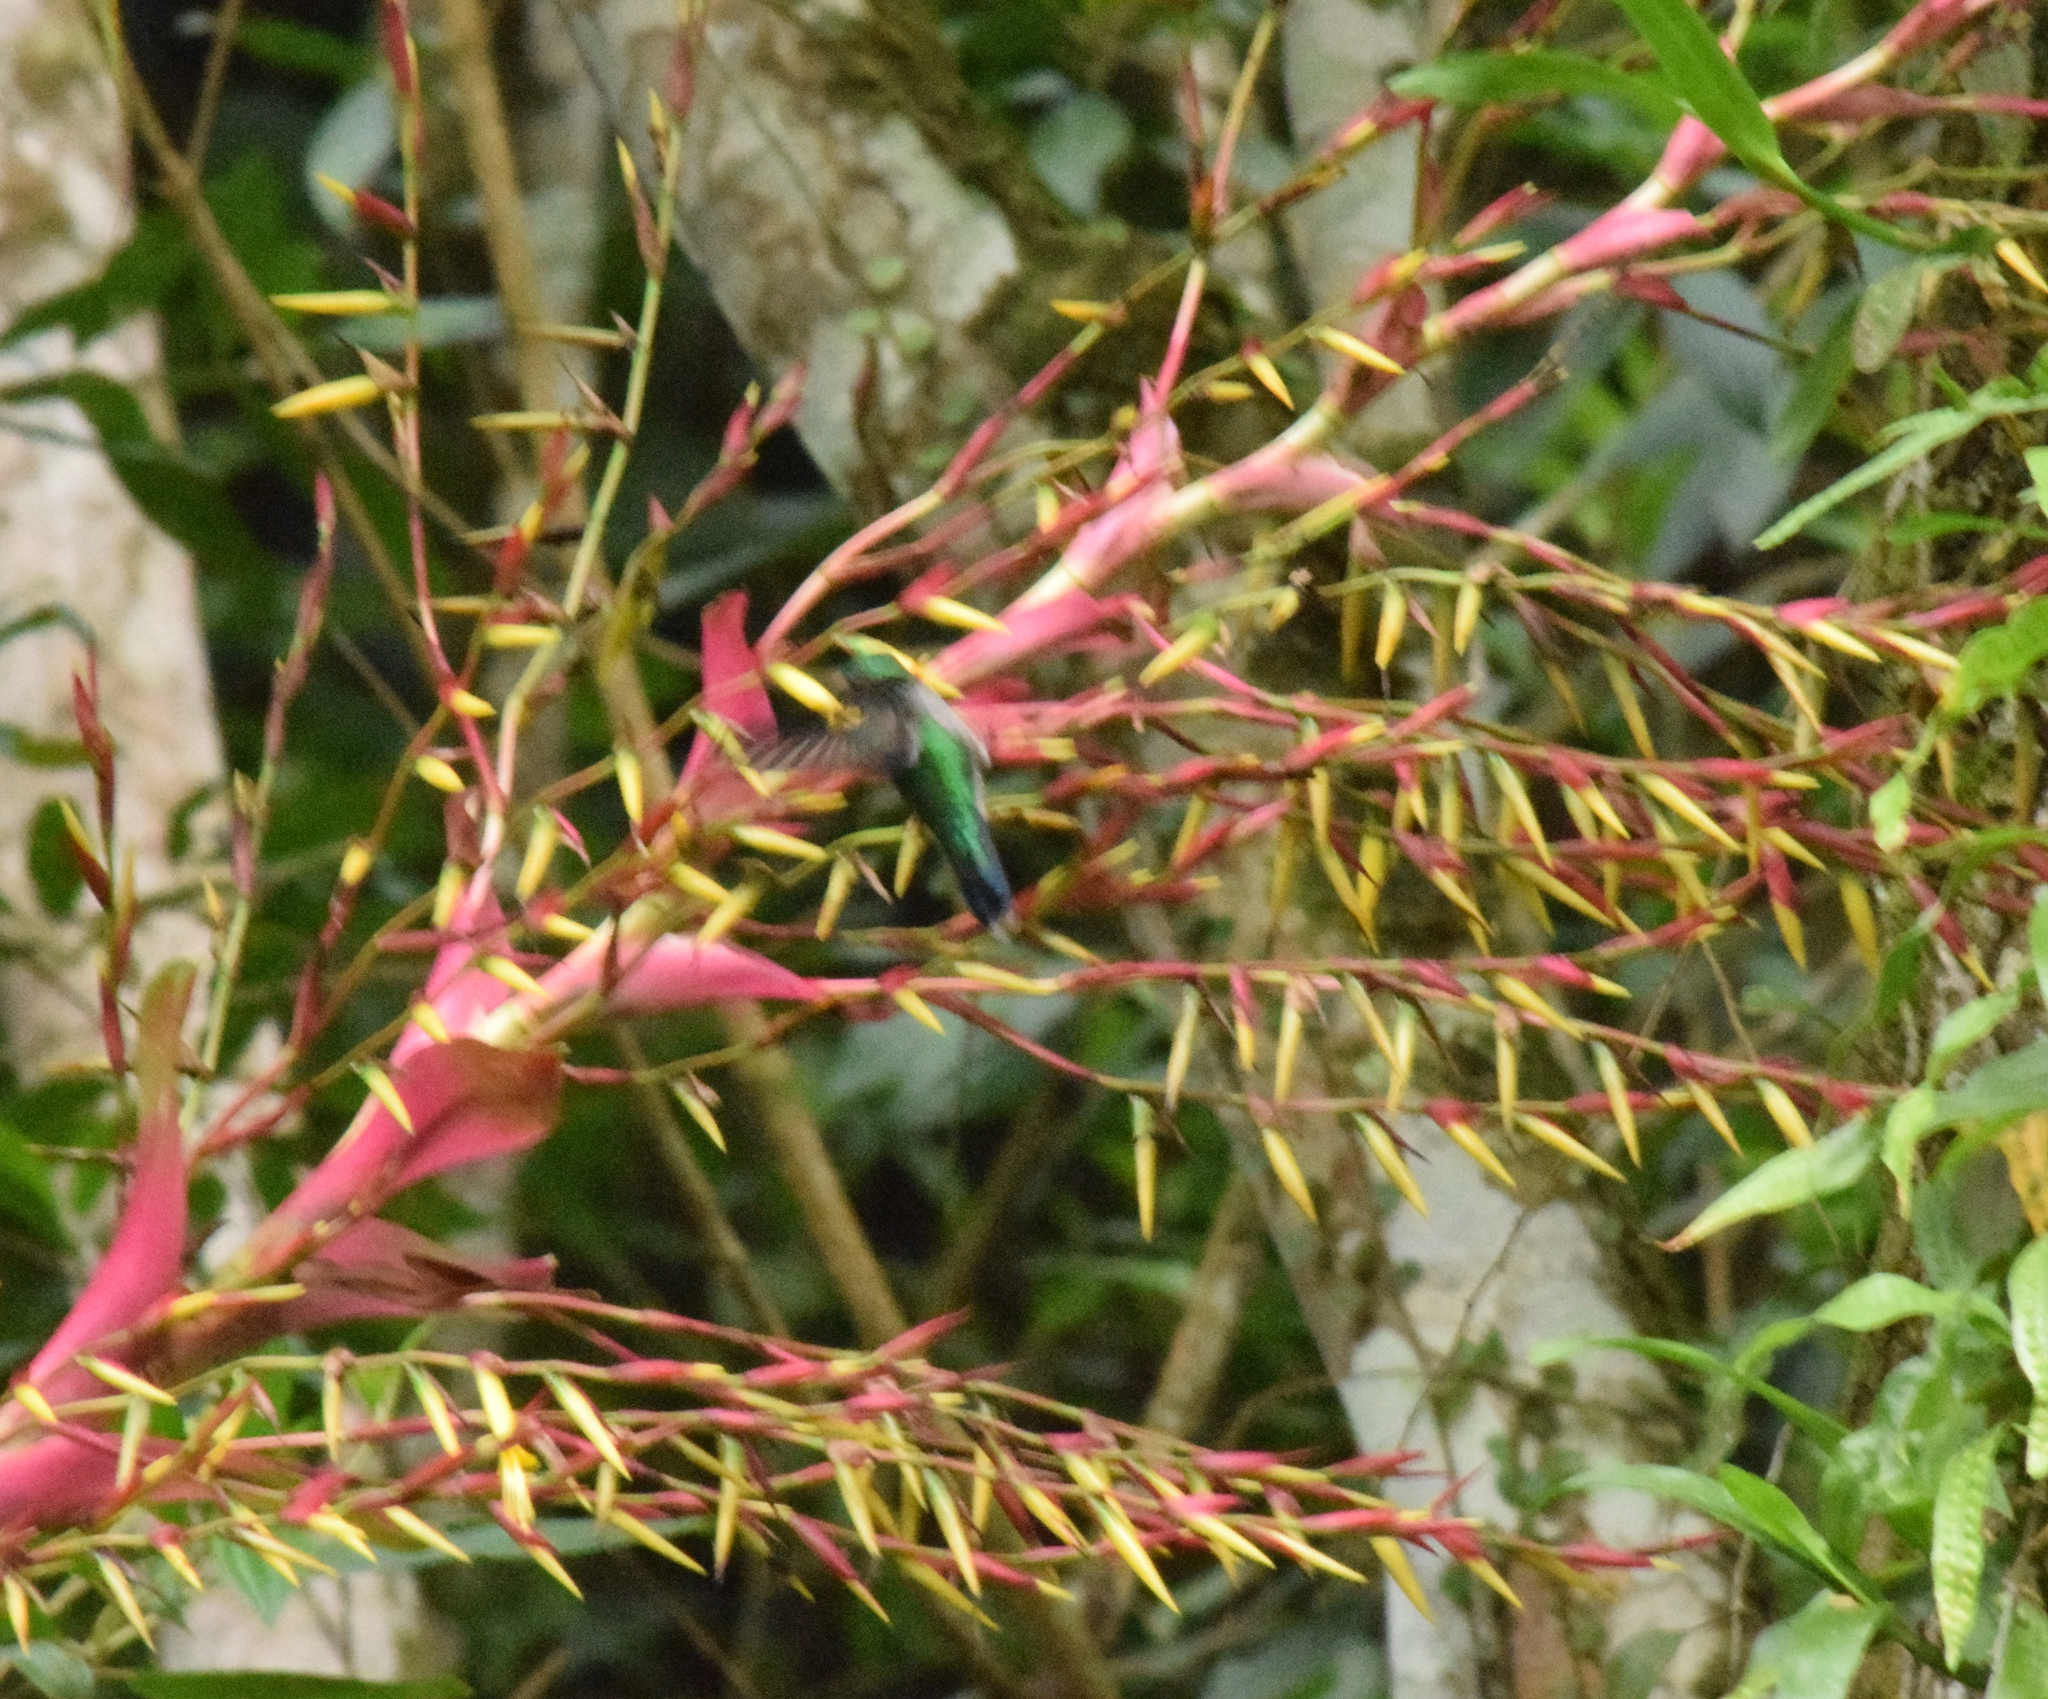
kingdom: Animalia
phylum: Chordata
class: Aves
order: Apodiformes
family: Trochilidae
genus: Thalurania
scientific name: Thalurania glaucopis
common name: Violet-capped woodnymph
